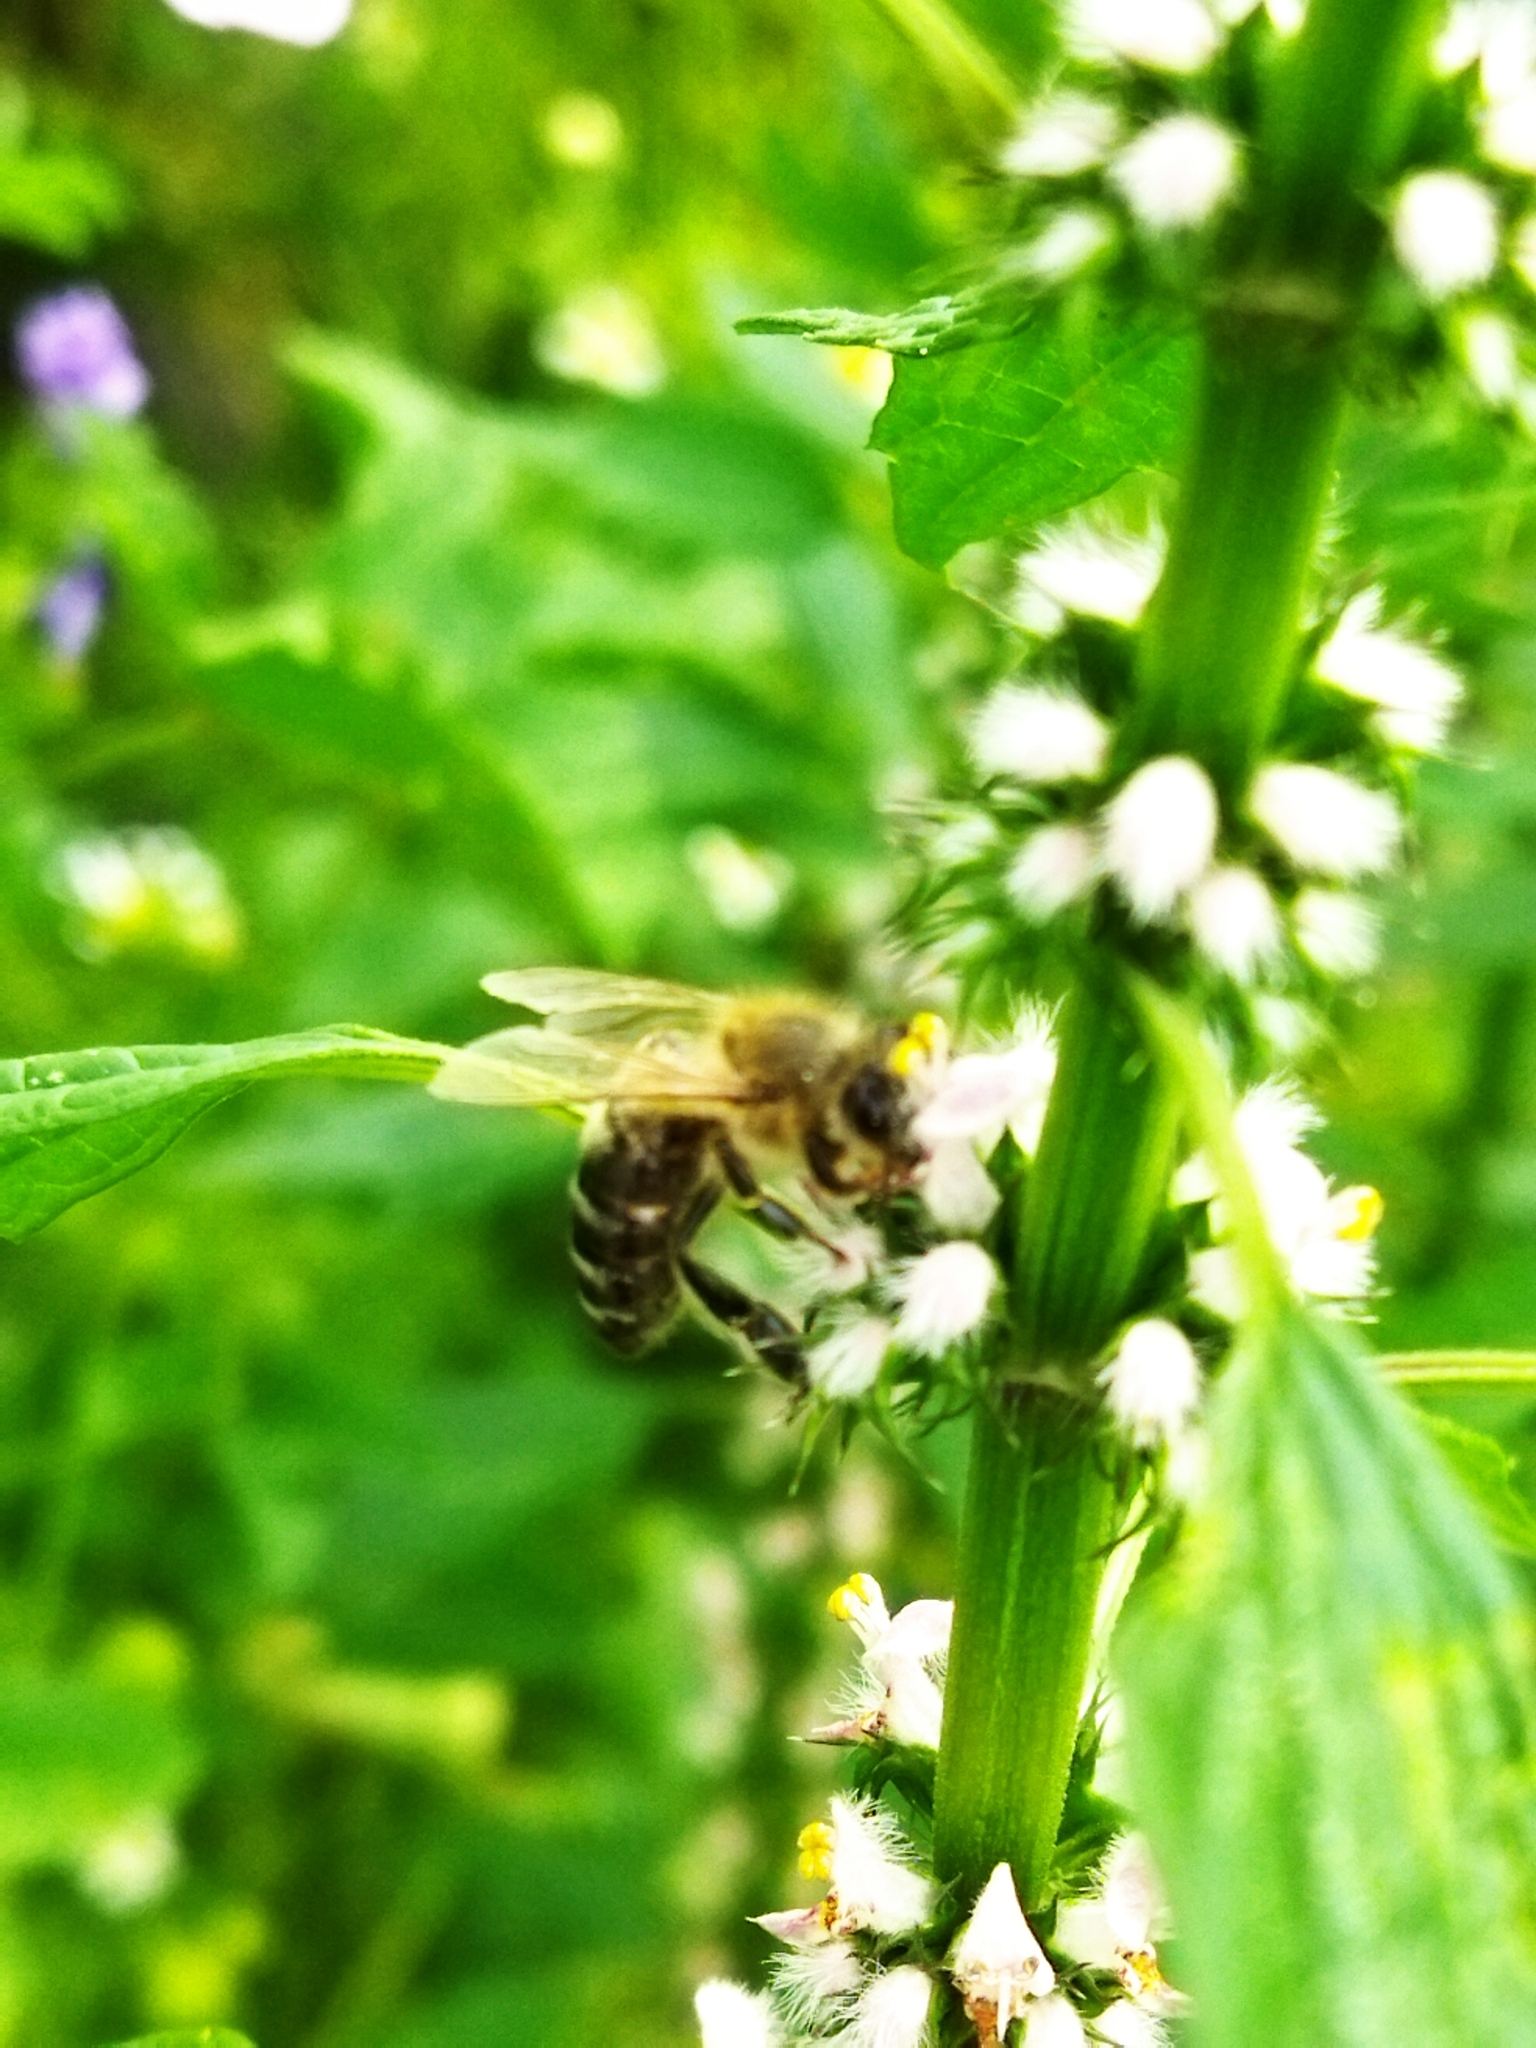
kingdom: Animalia
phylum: Arthropoda
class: Insecta
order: Hymenoptera
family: Apidae
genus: Apis
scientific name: Apis mellifera
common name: Honey bee
